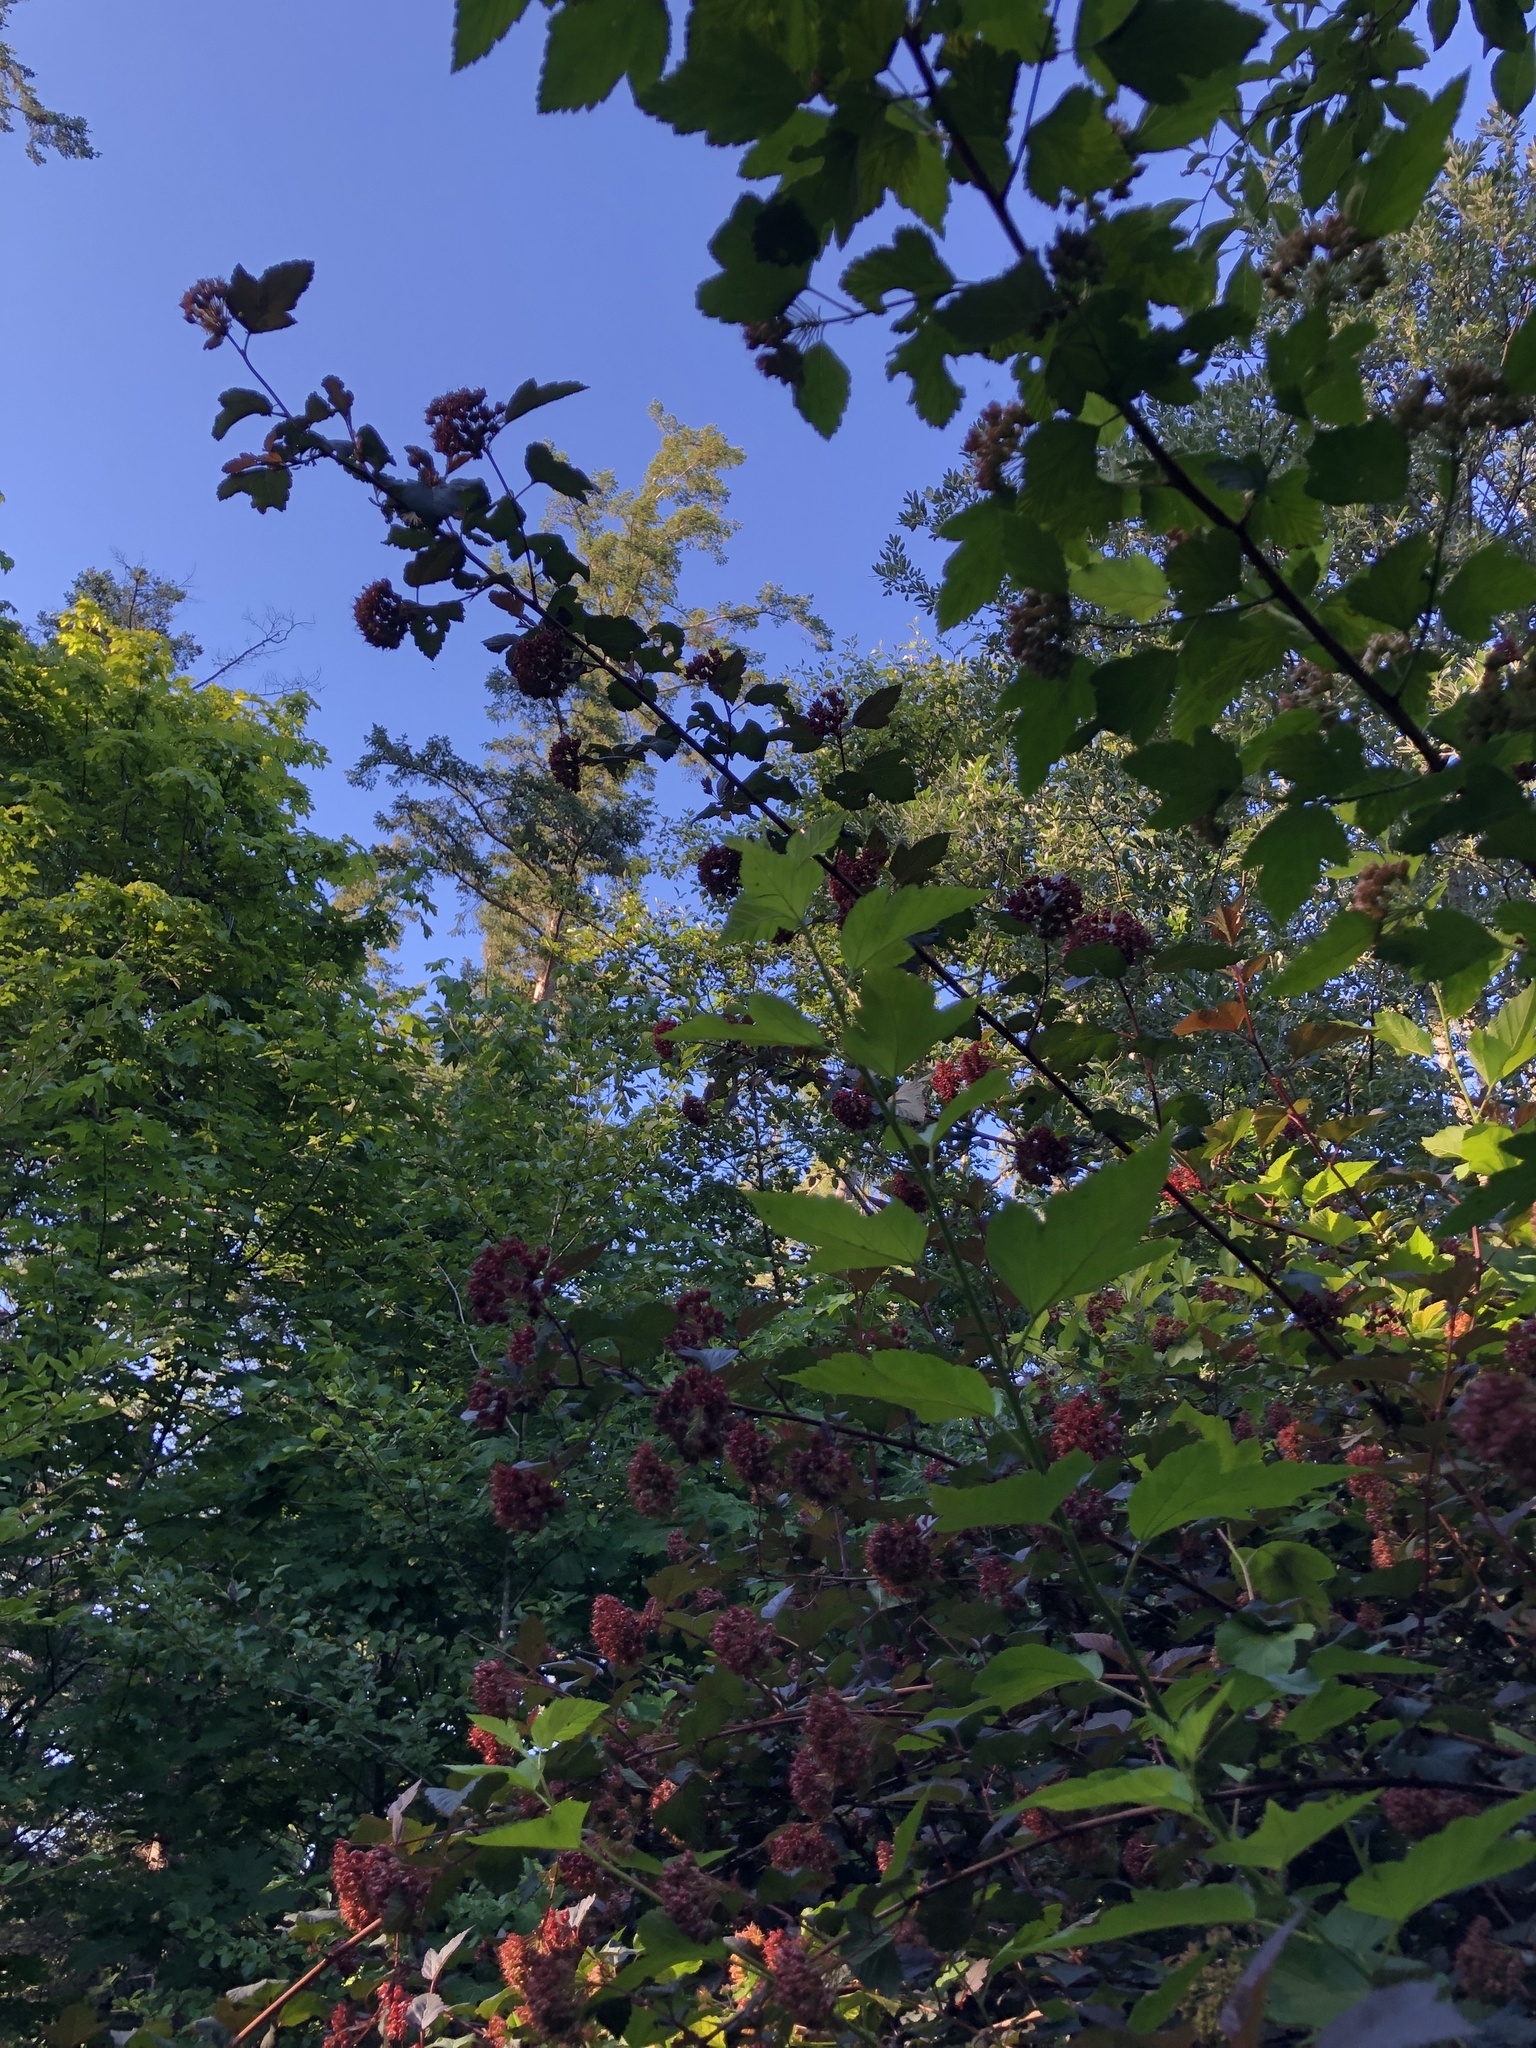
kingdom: Plantae
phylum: Tracheophyta
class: Magnoliopsida
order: Rosales
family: Rosaceae
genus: Physocarpus
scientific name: Physocarpus capitatus
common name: Pacific ninebark
